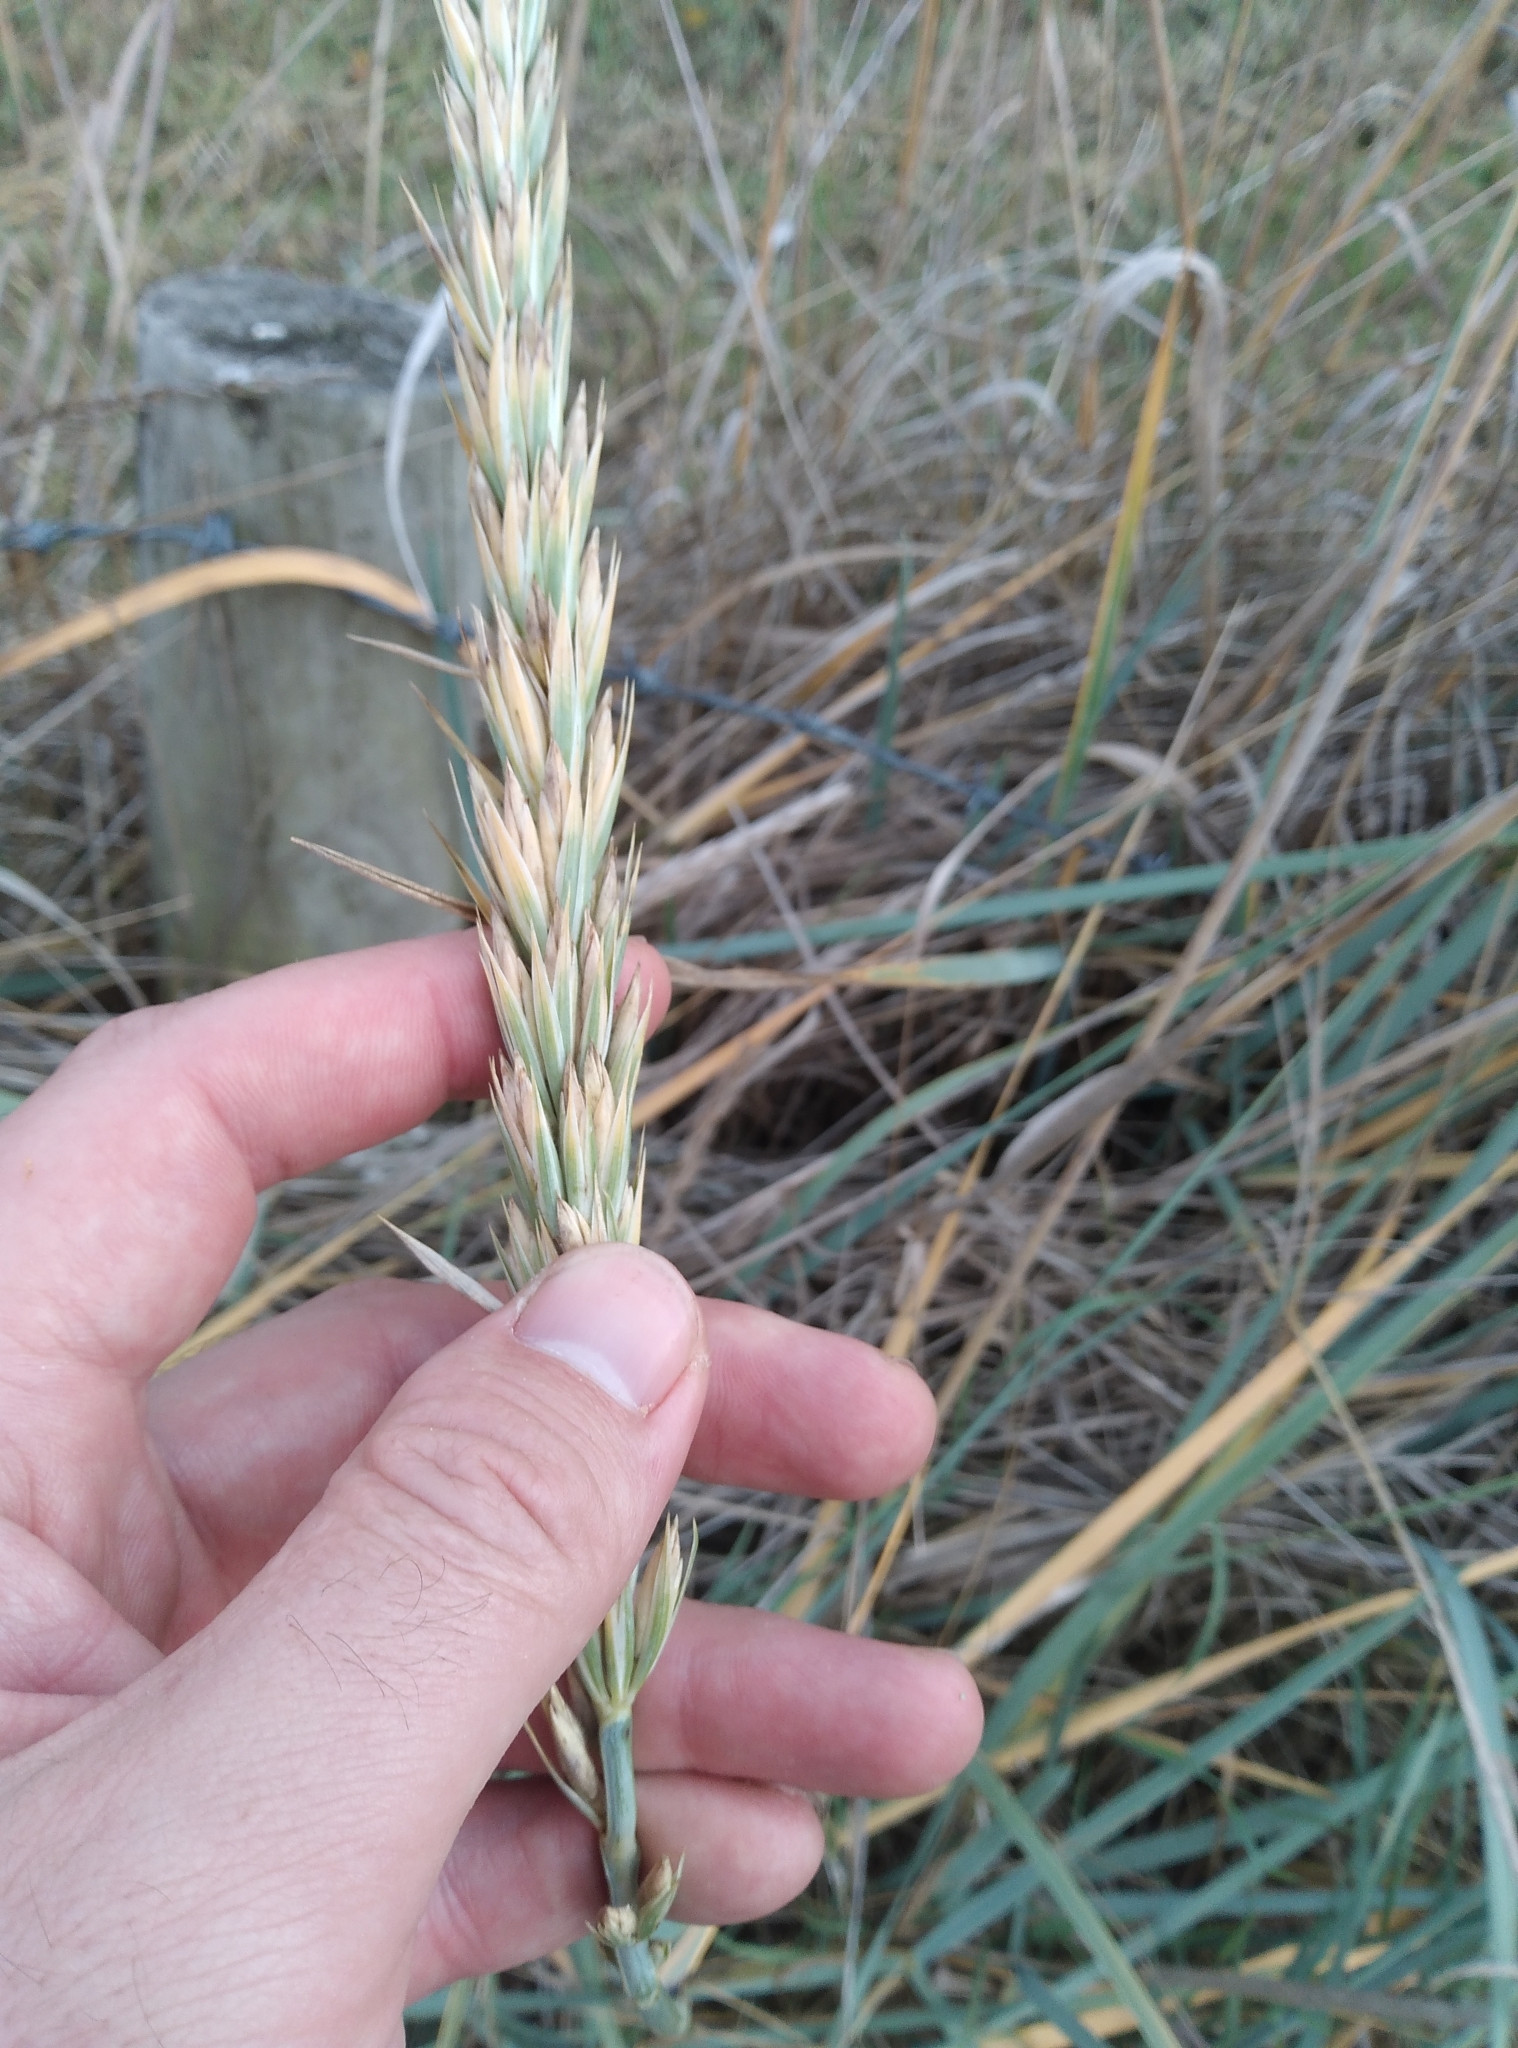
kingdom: Plantae
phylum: Tracheophyta
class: Liliopsida
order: Poales
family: Poaceae
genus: Leymus
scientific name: Leymus racemosus
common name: Mammoth wildrye
